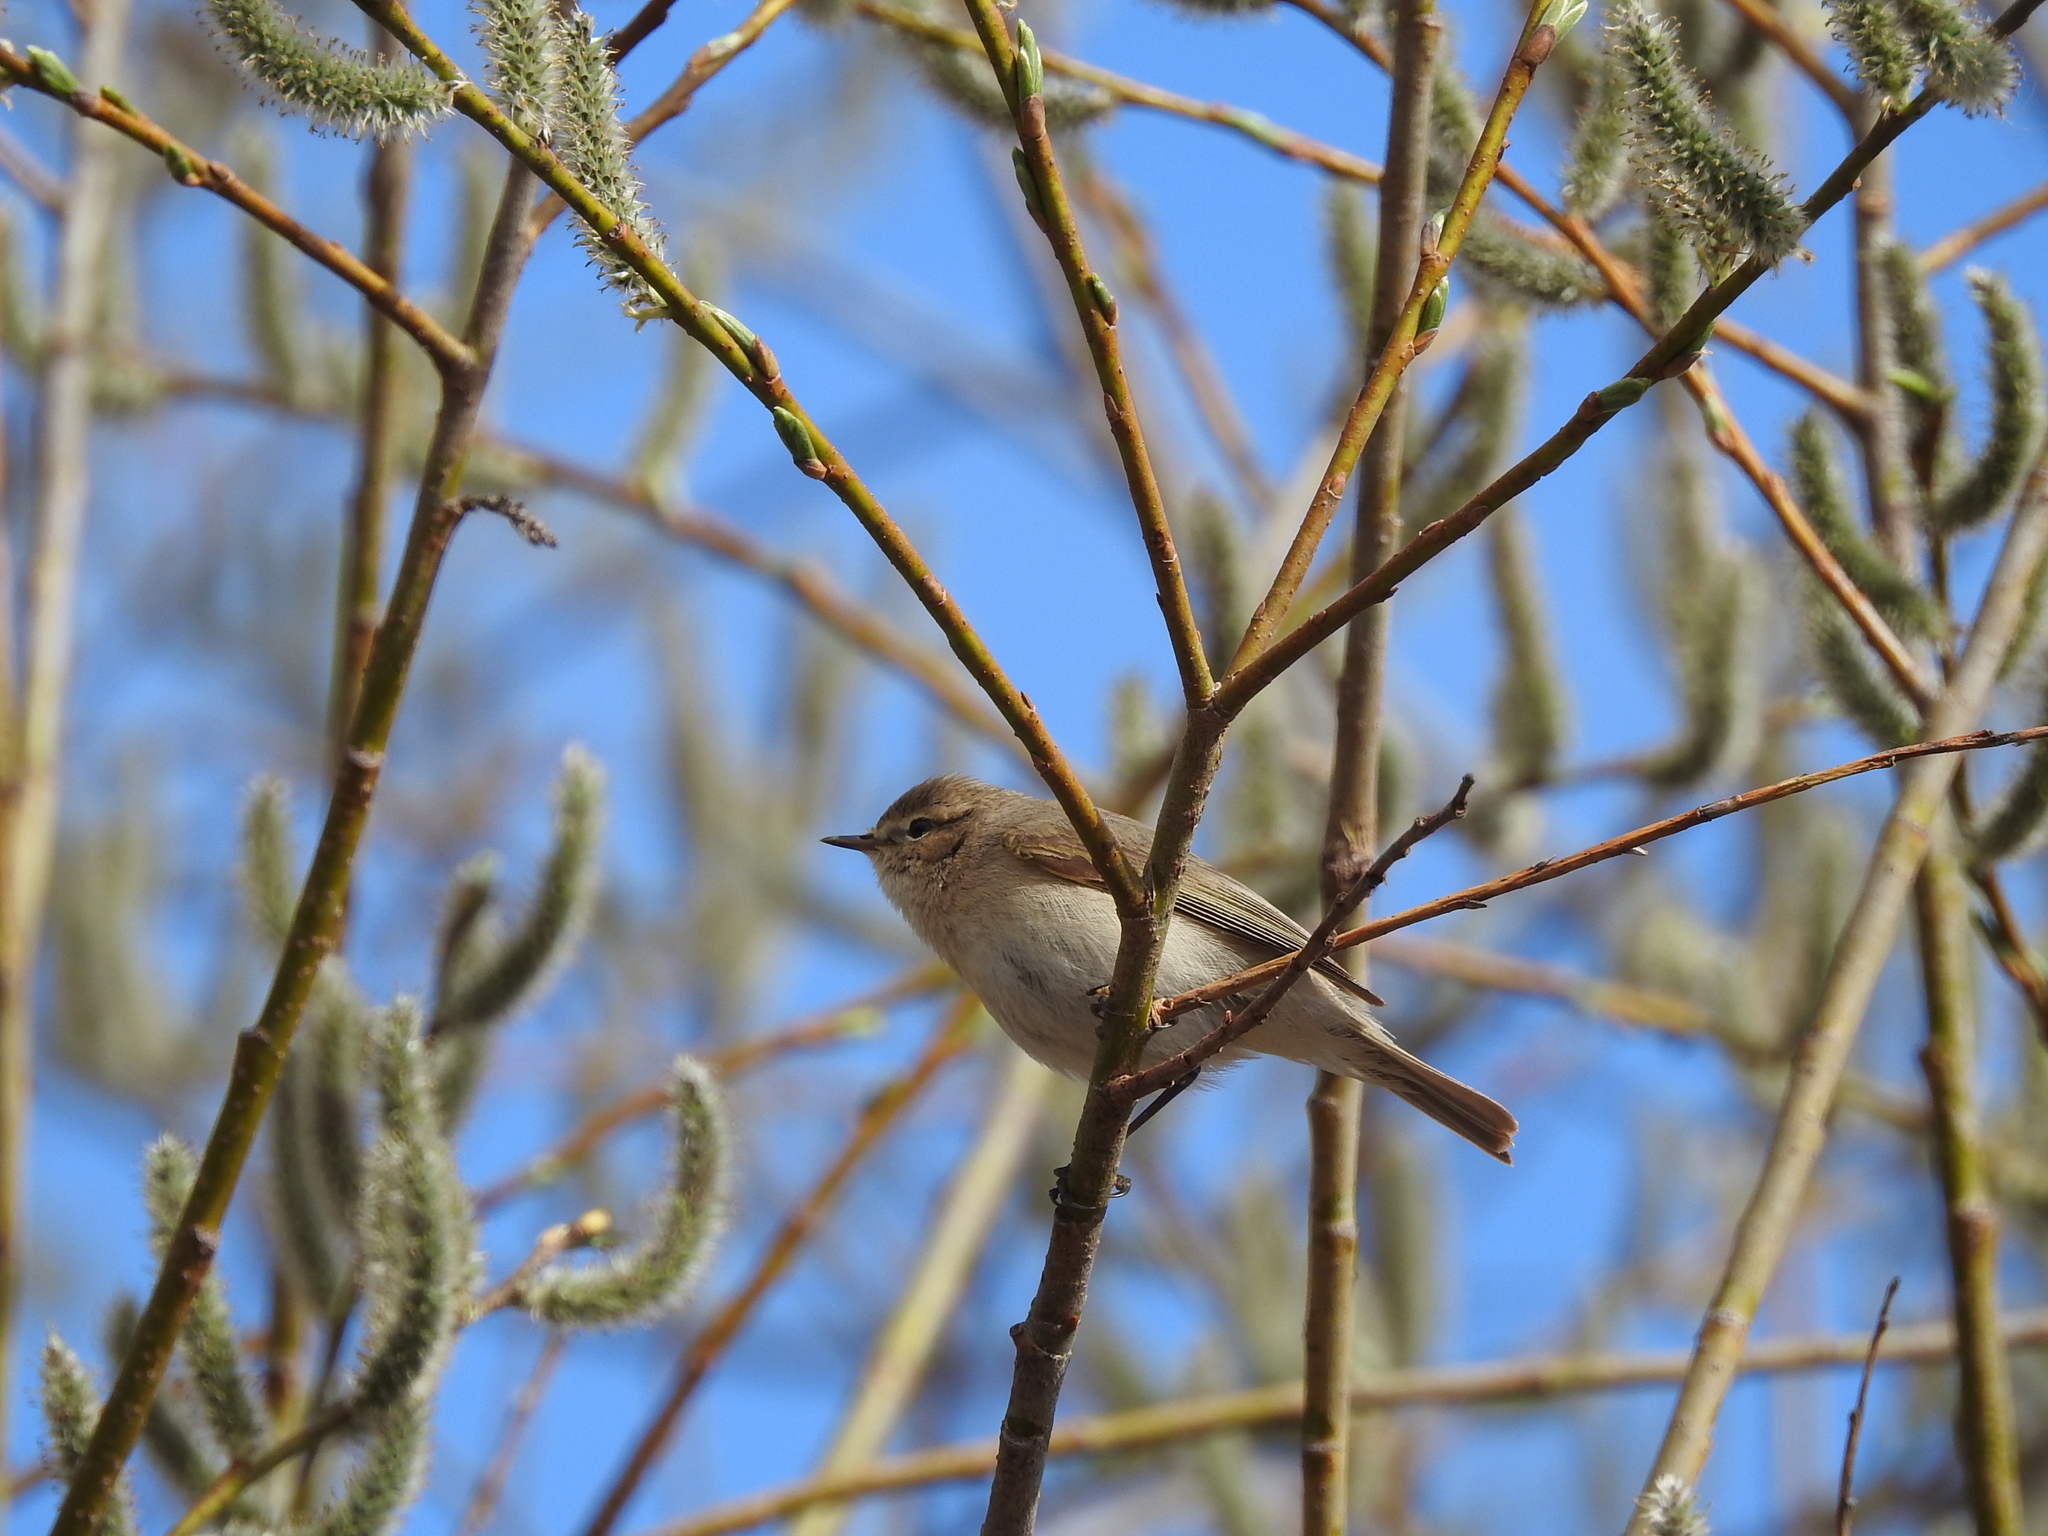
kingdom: Animalia
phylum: Chordata
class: Aves
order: Passeriformes
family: Phylloscopidae
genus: Phylloscopus
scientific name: Phylloscopus collybita
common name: Common chiffchaff
